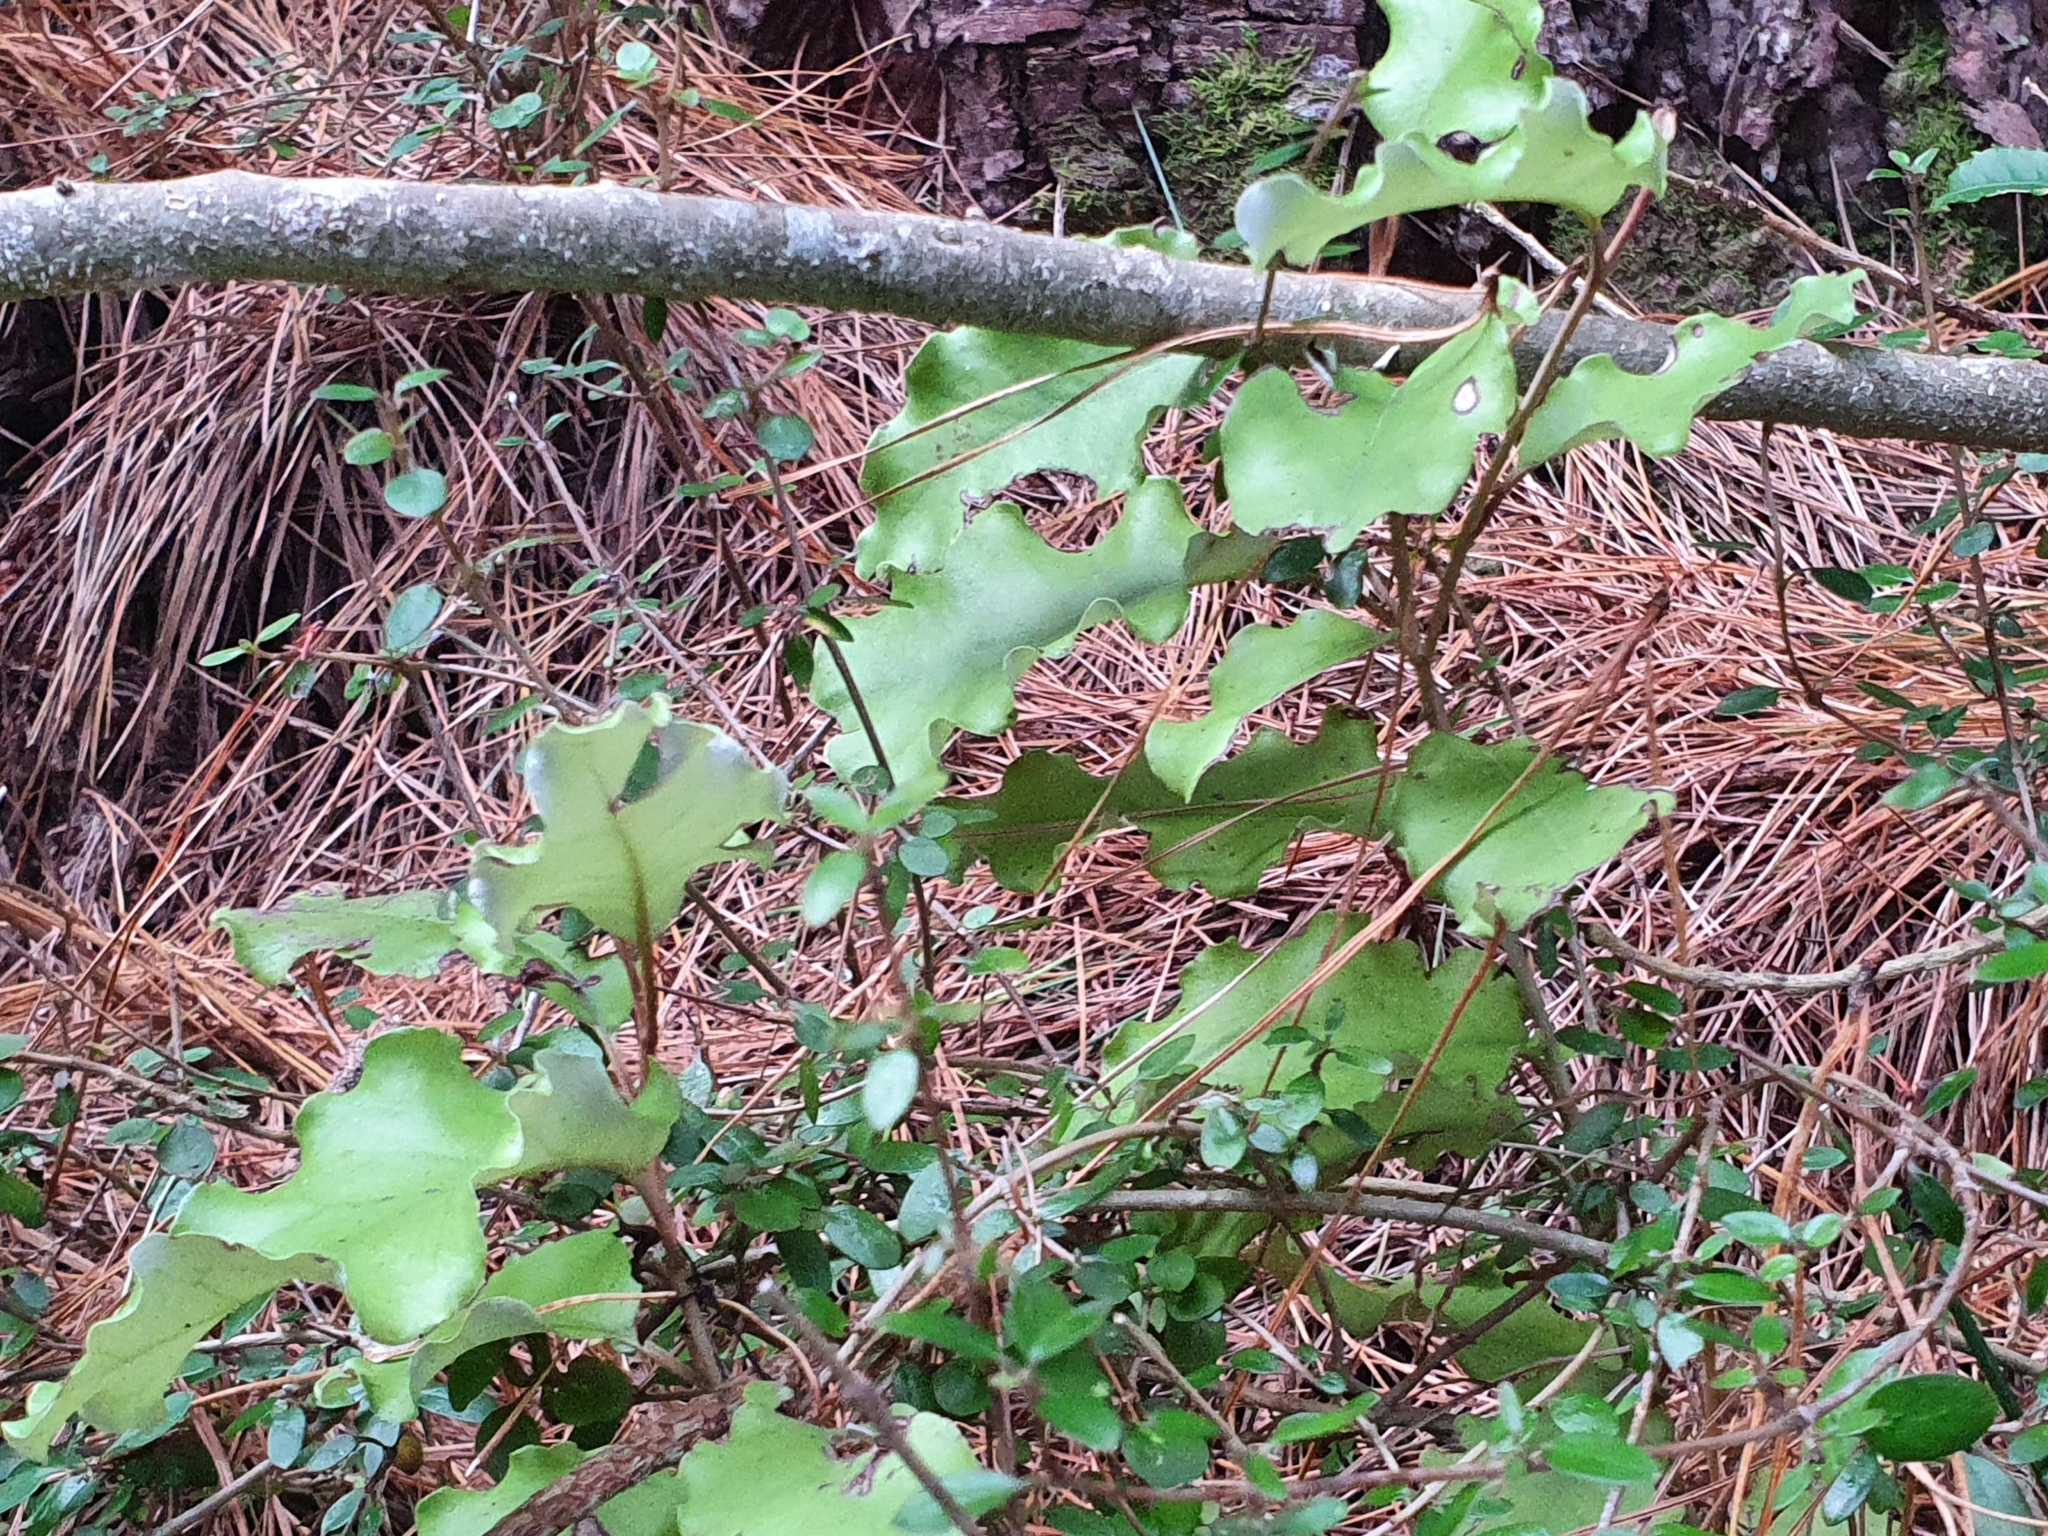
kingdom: Plantae
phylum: Tracheophyta
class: Magnoliopsida
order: Asterales
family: Asteraceae
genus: Olearia
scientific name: Olearia paniculata
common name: Akiraho
